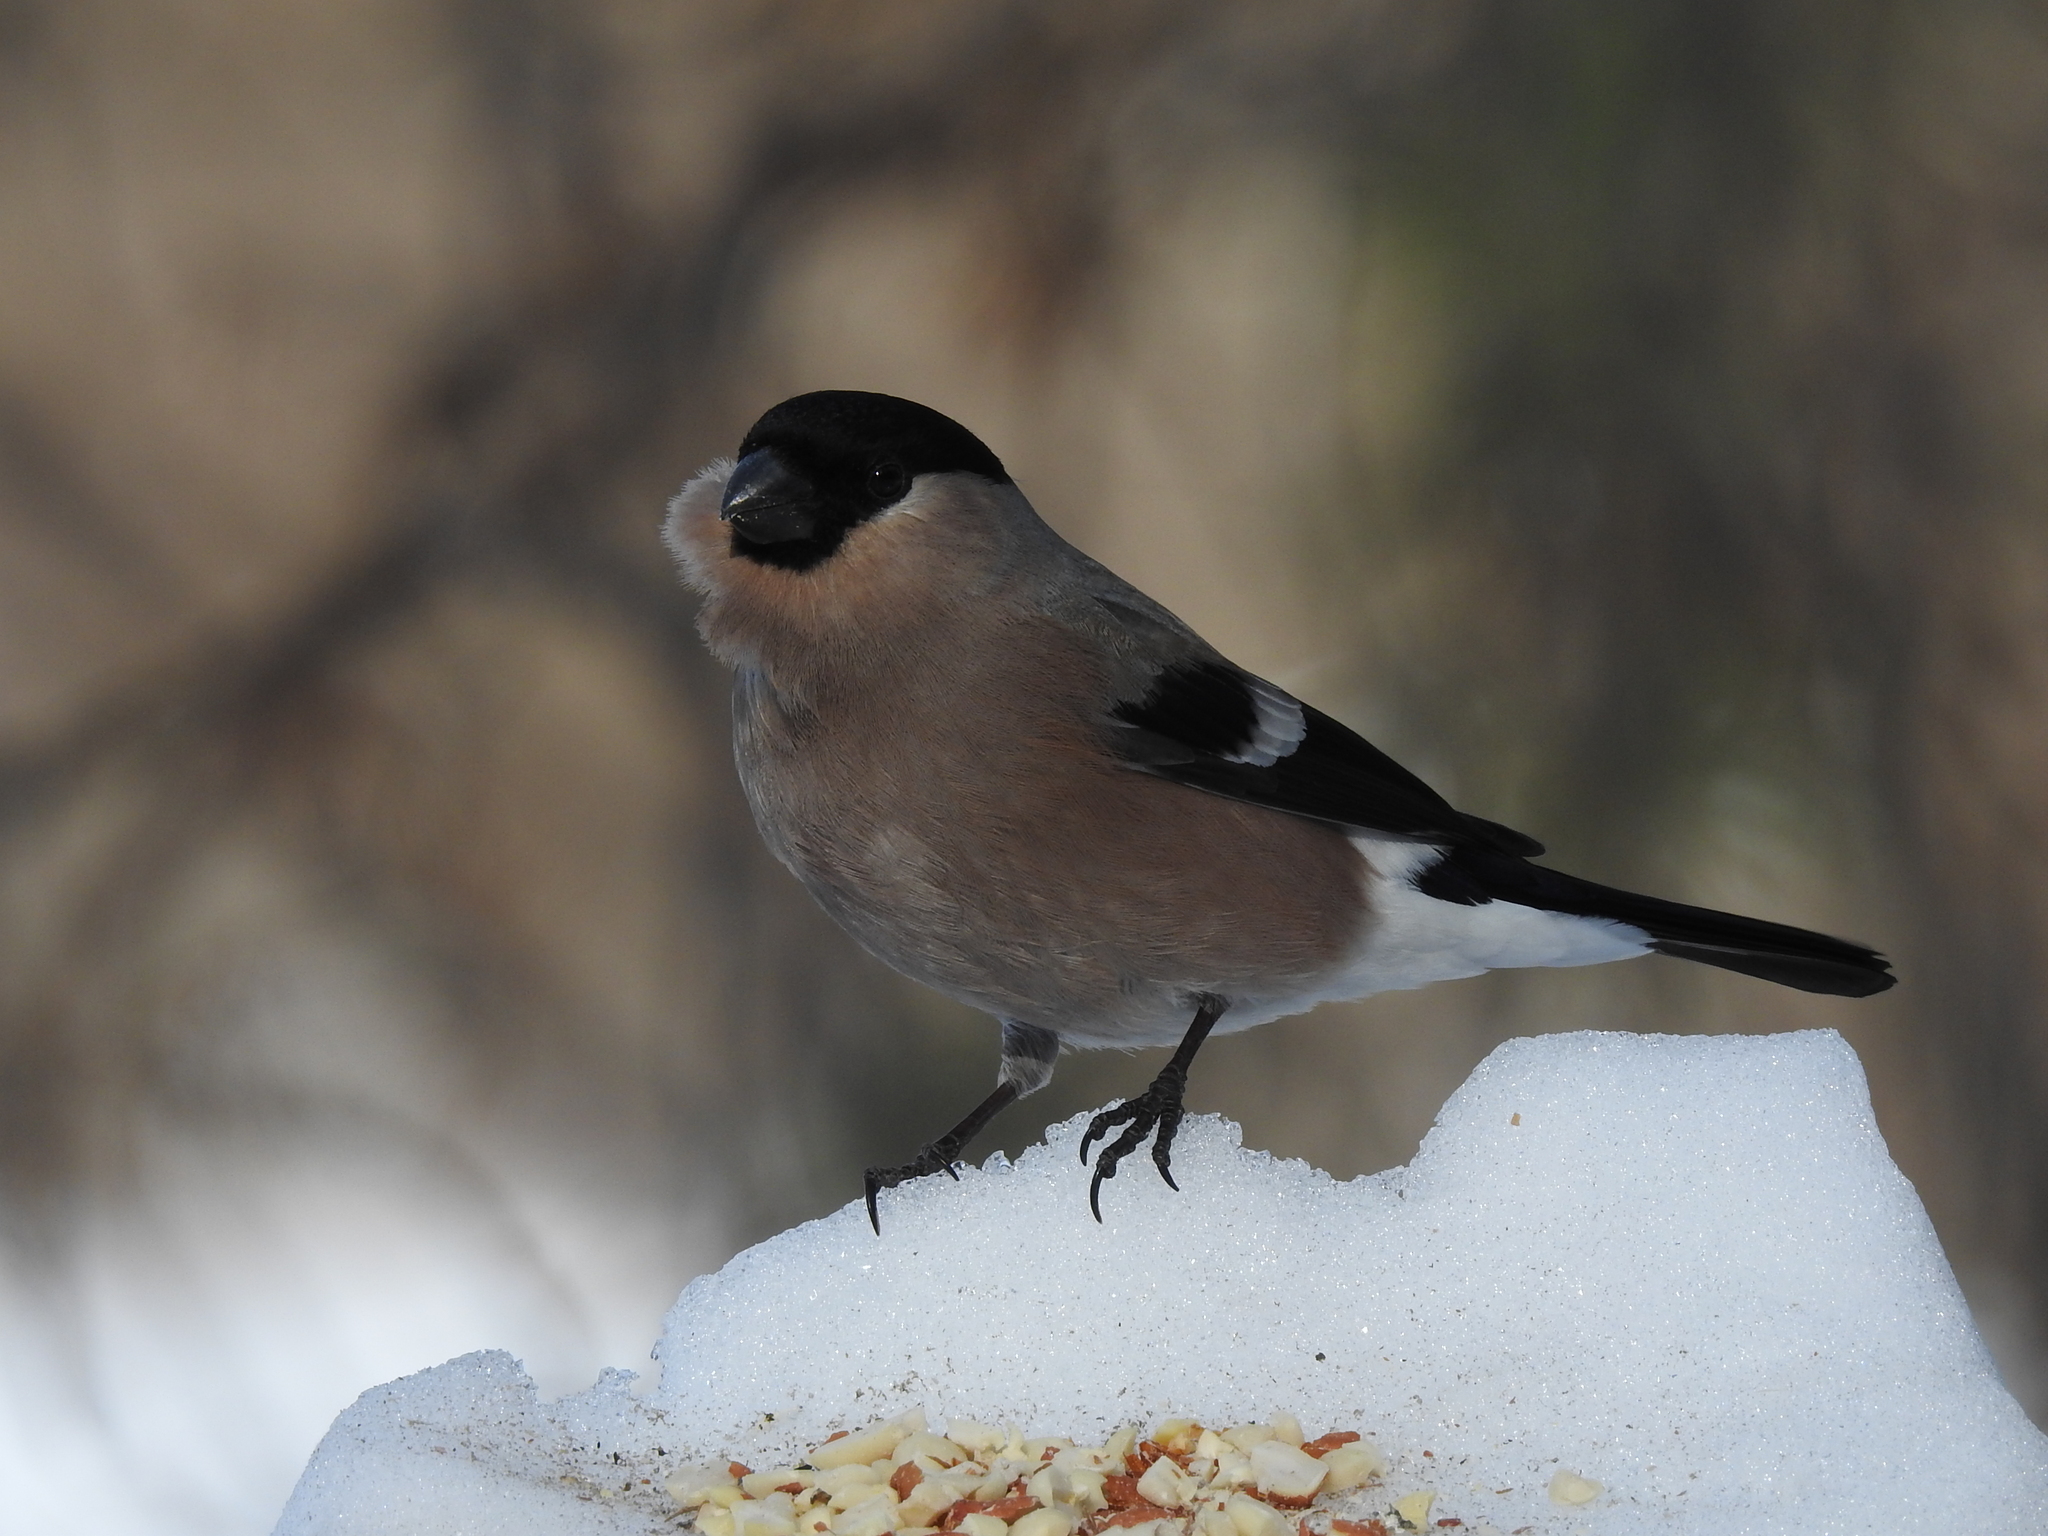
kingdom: Animalia
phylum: Chordata
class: Aves
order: Passeriformes
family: Fringillidae
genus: Pyrrhula
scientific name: Pyrrhula pyrrhula
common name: Eurasian bullfinch
